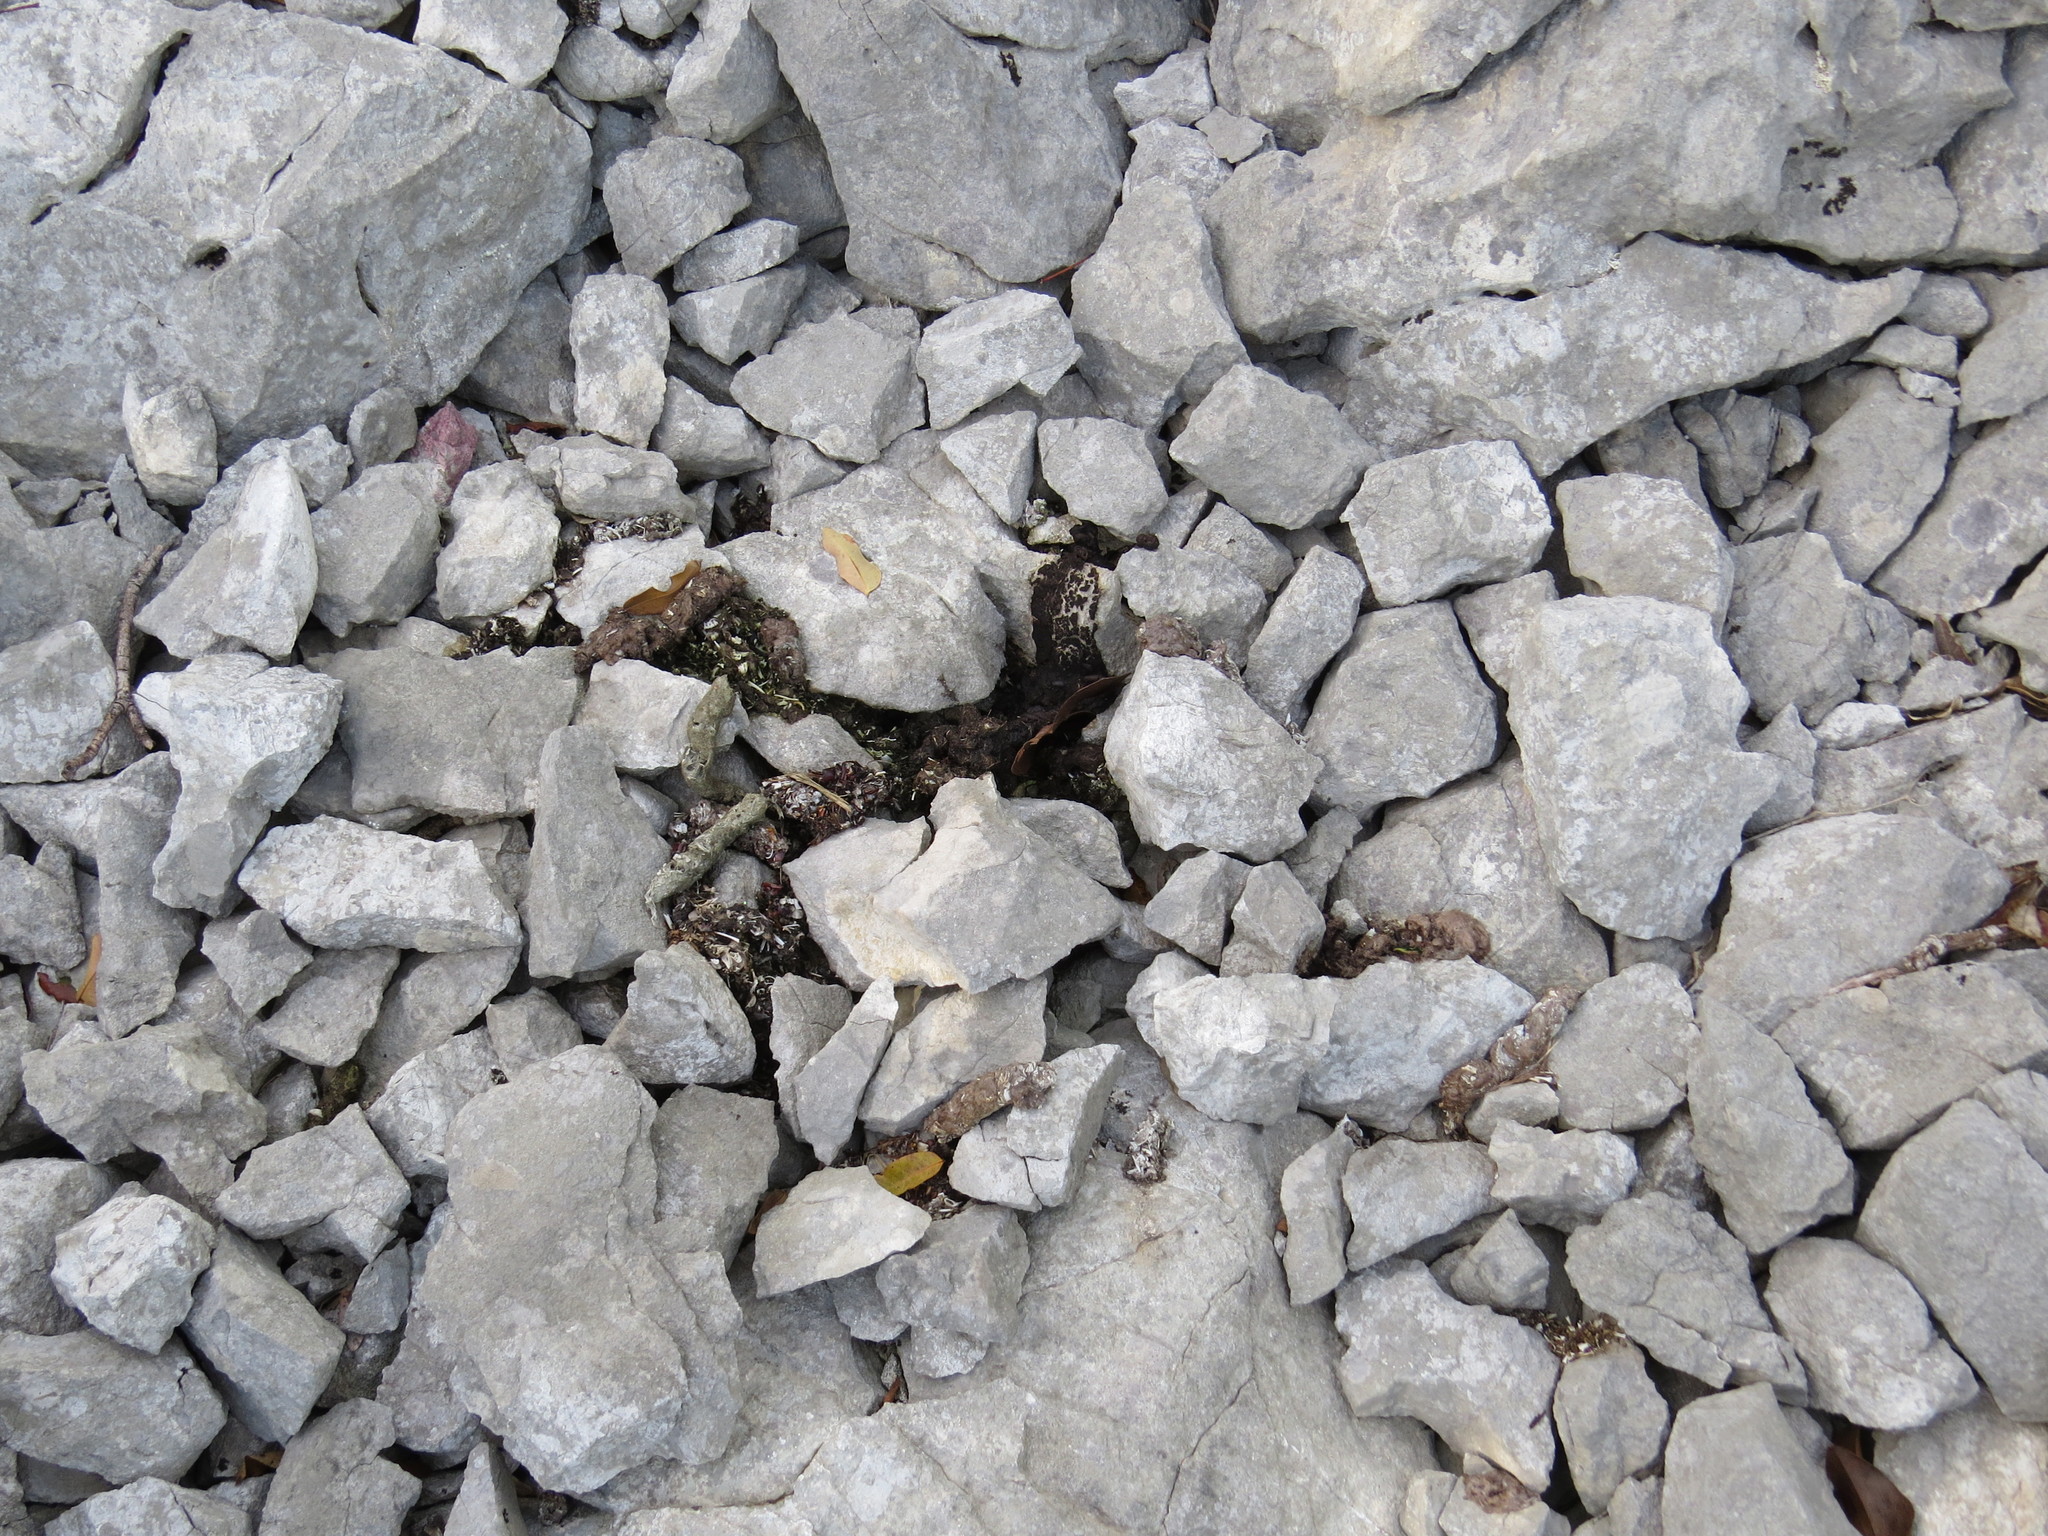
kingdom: Animalia
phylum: Chordata
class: Mammalia
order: Carnivora
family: Viverridae
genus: Genetta
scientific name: Genetta genetta
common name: Common genet
